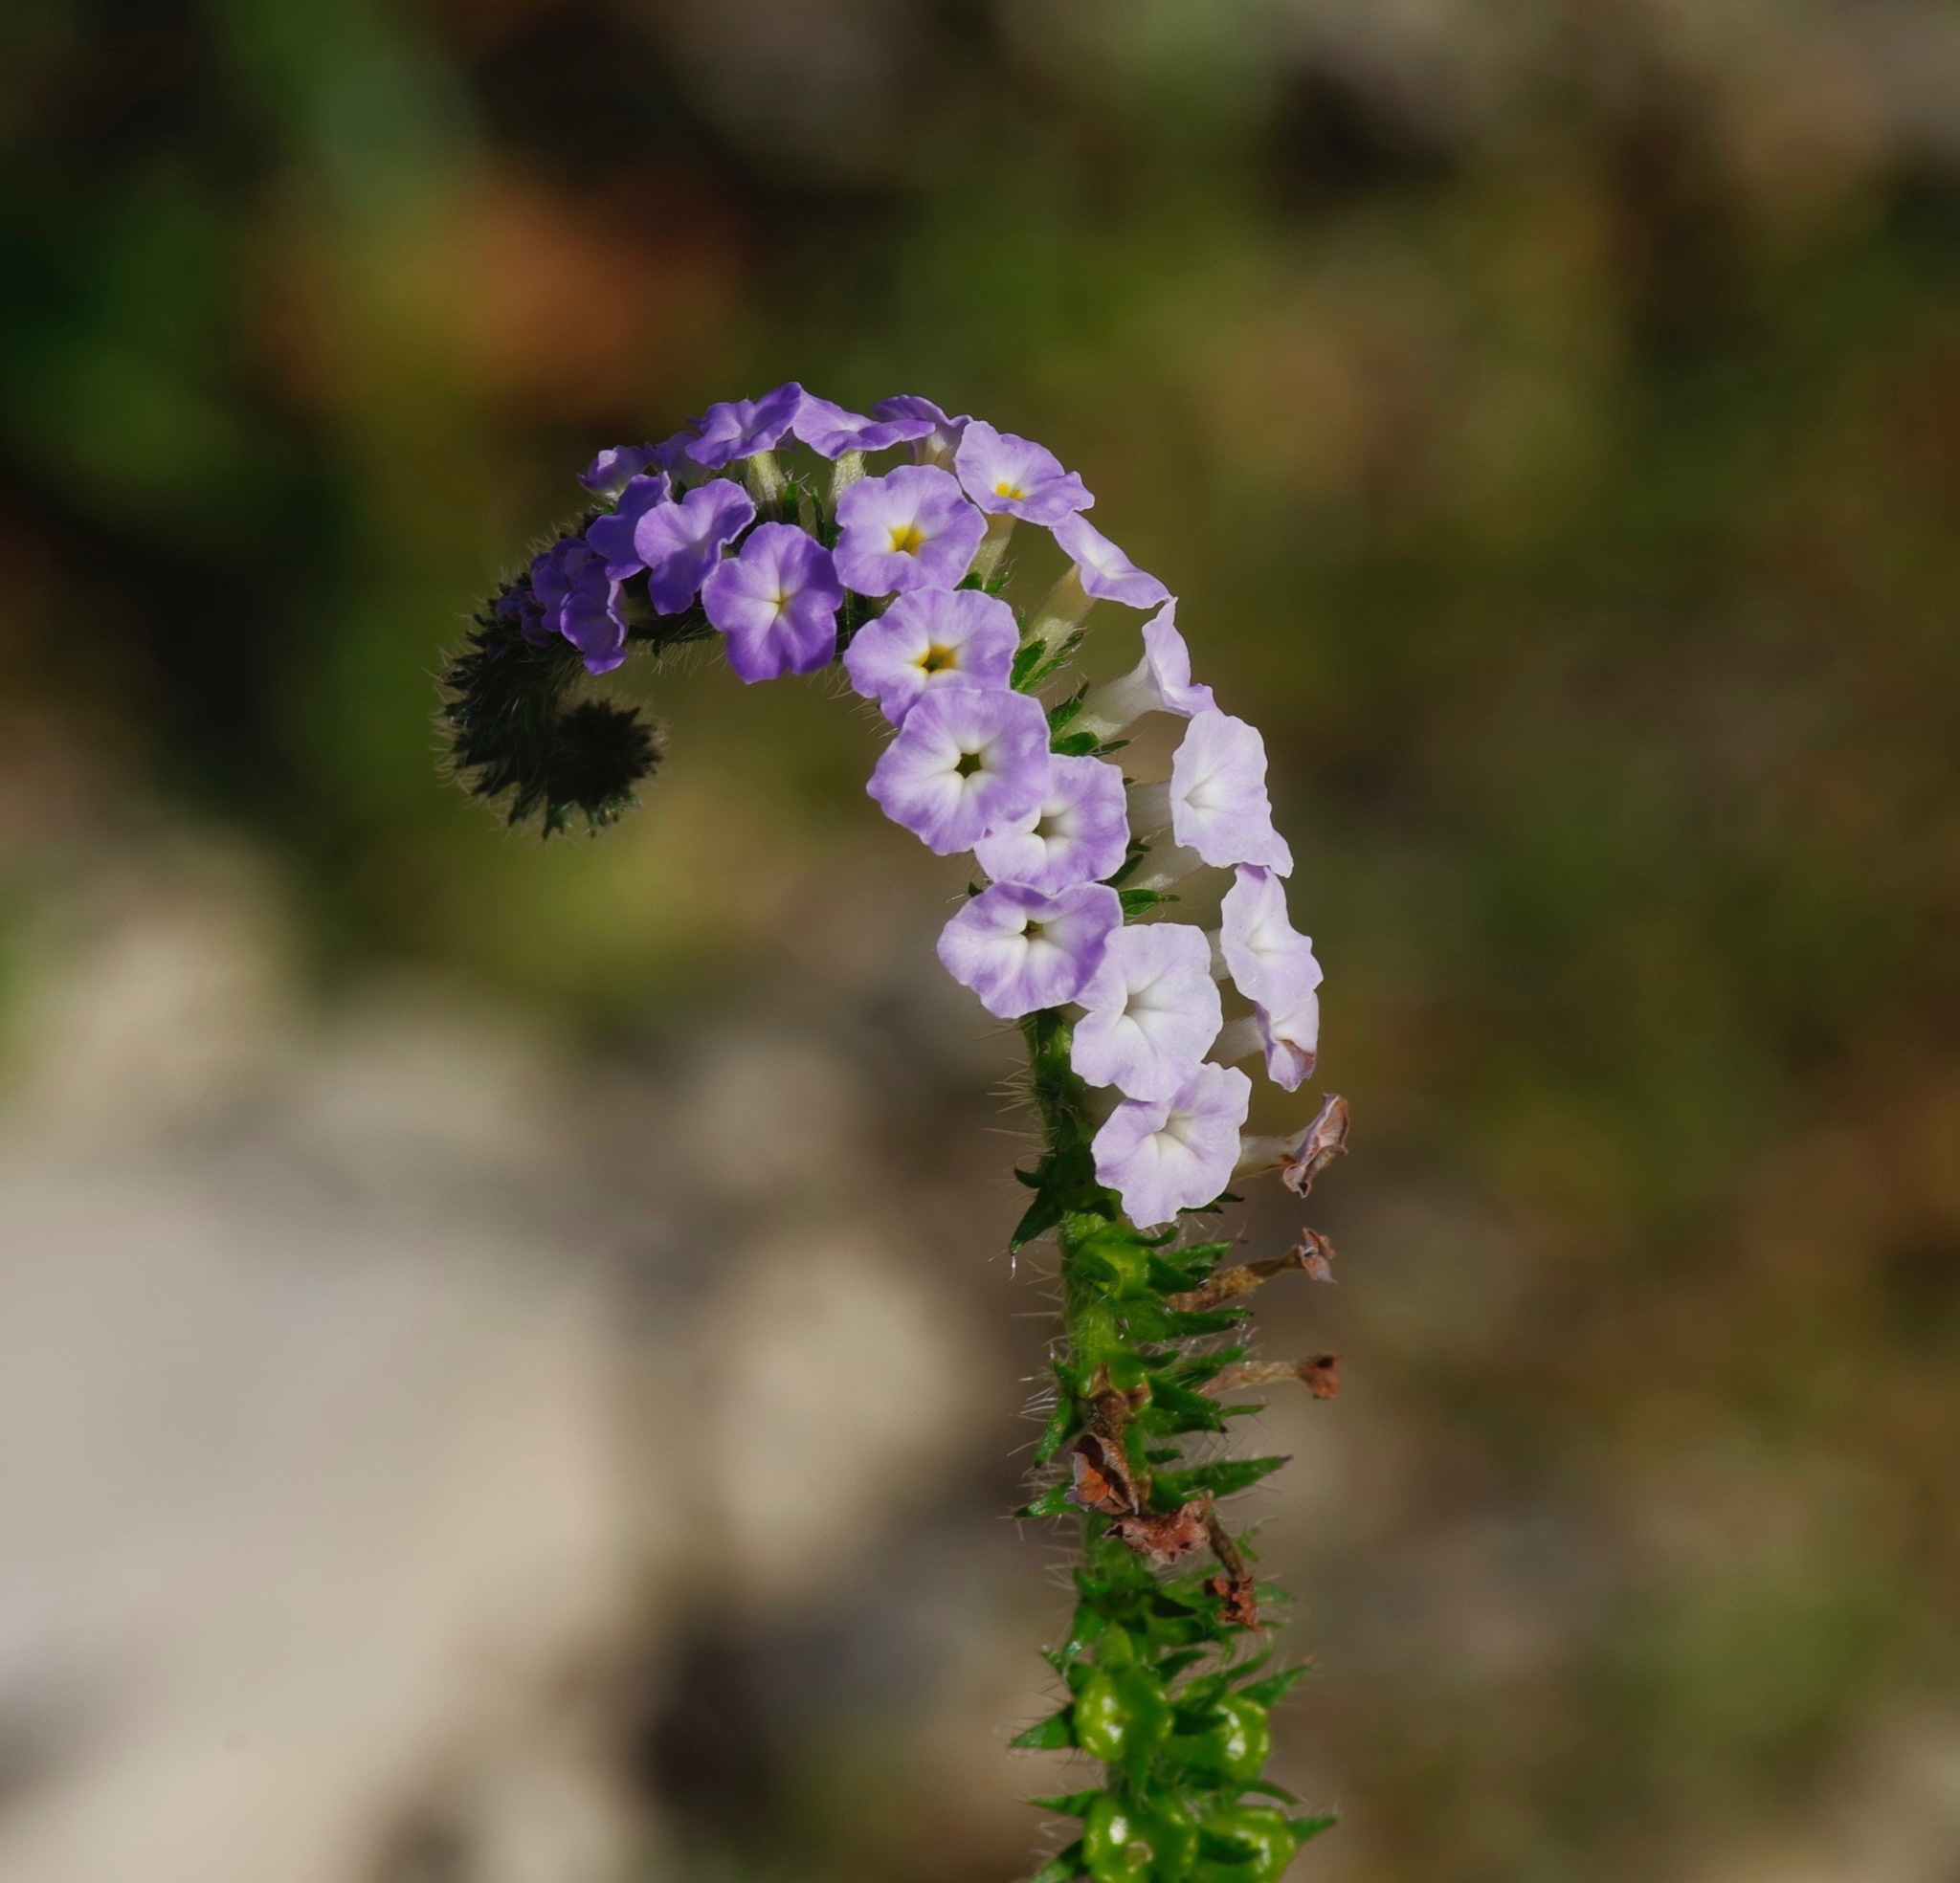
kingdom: Plantae
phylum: Tracheophyta
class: Magnoliopsida
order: Boraginales
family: Heliotropiaceae
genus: Heliotropium
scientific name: Heliotropium indicum
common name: Indian heliotrope
